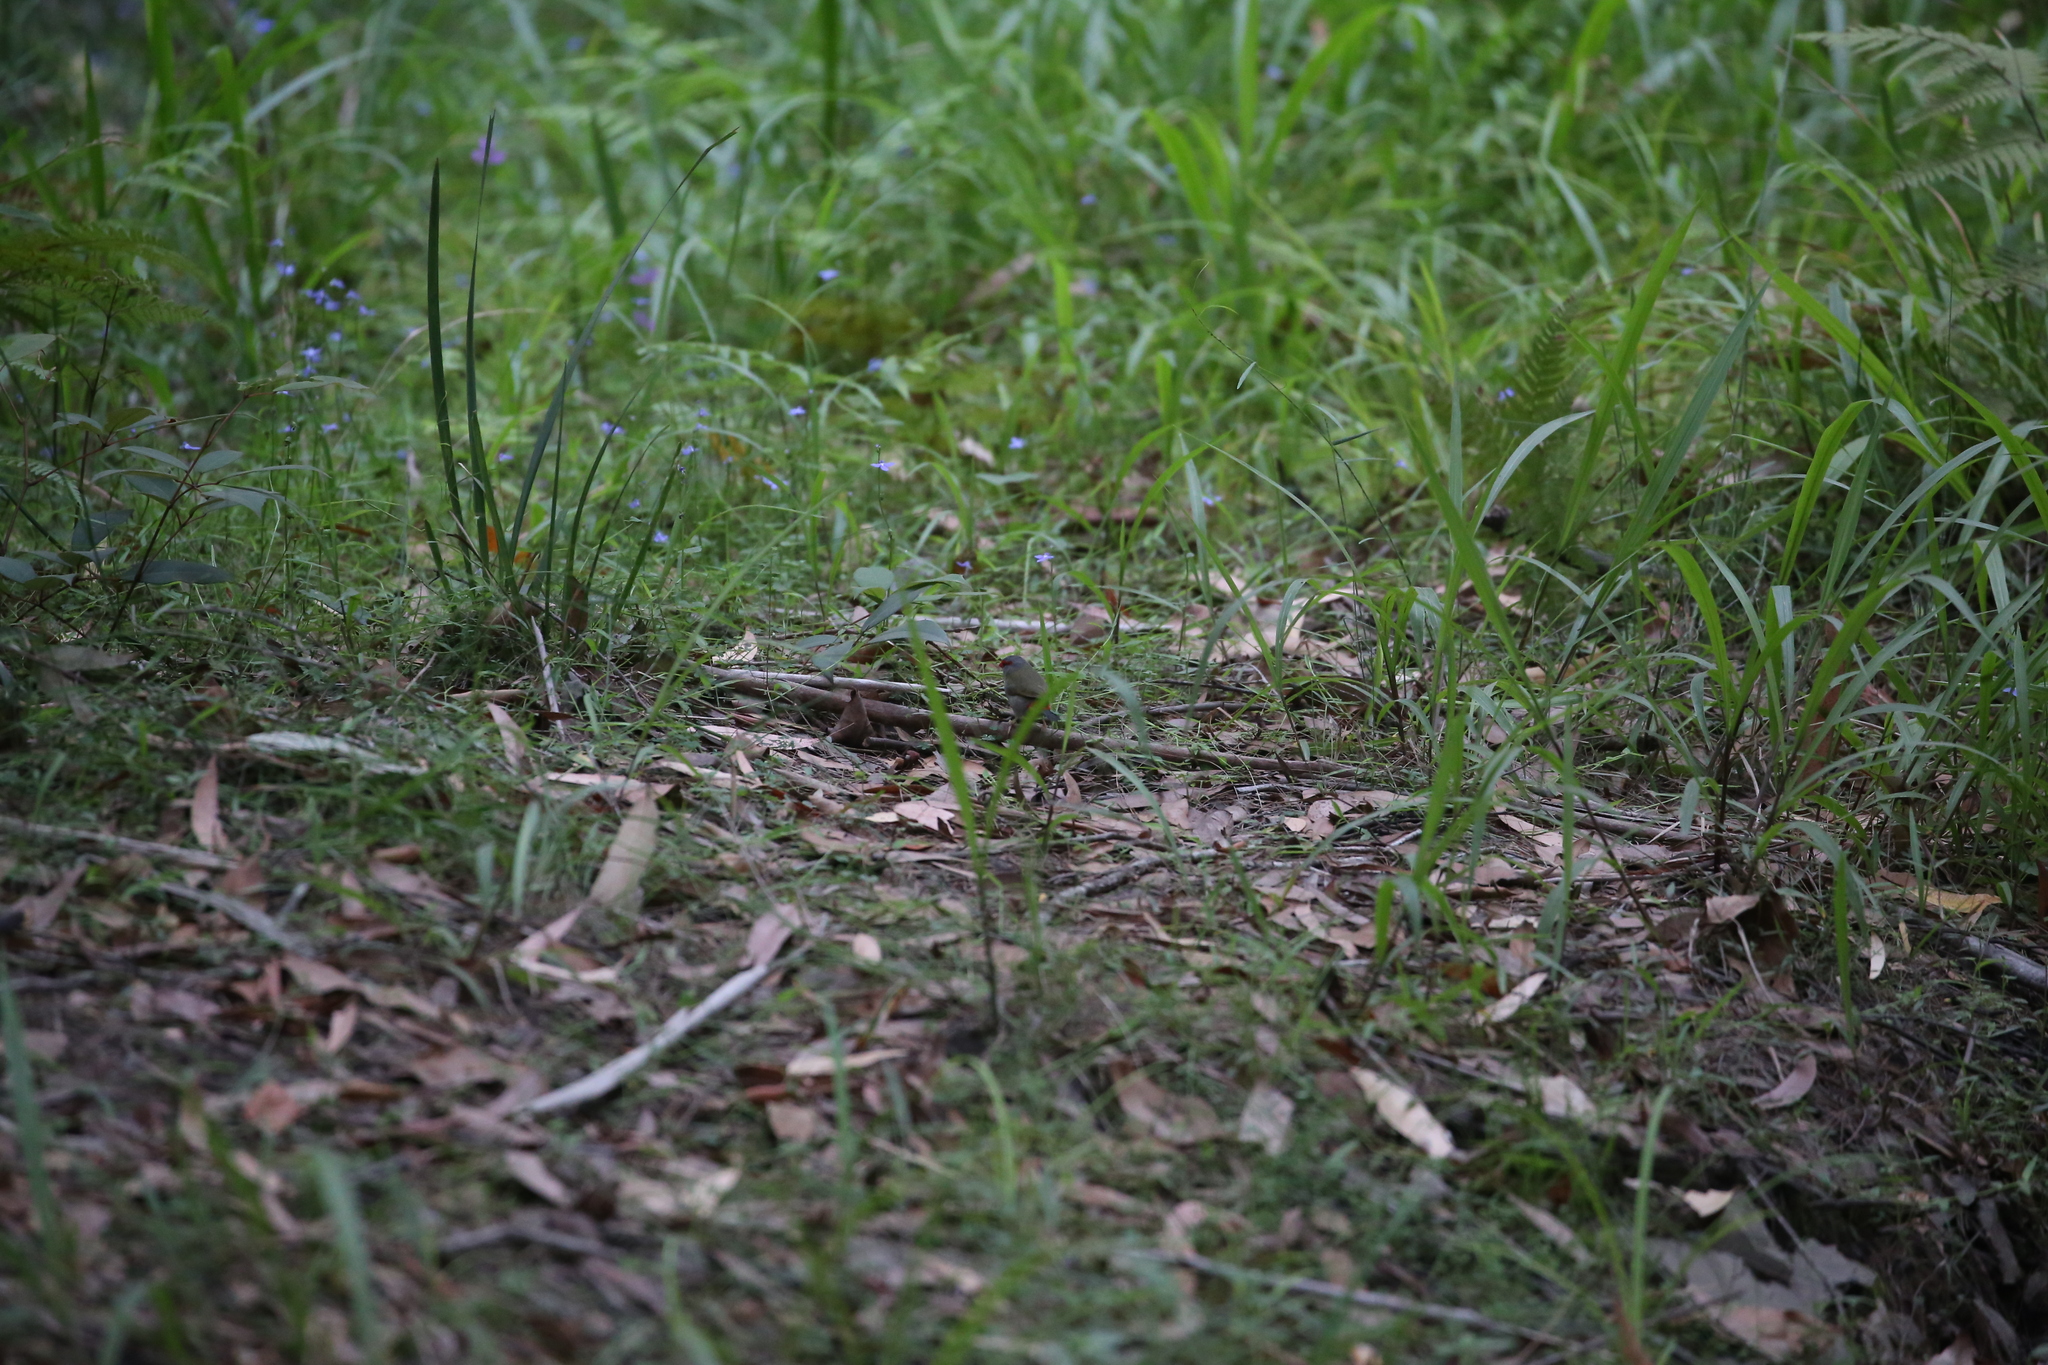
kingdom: Animalia
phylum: Chordata
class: Aves
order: Passeriformes
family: Estrildidae
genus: Neochmia
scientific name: Neochmia temporalis
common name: Red-browed finch
